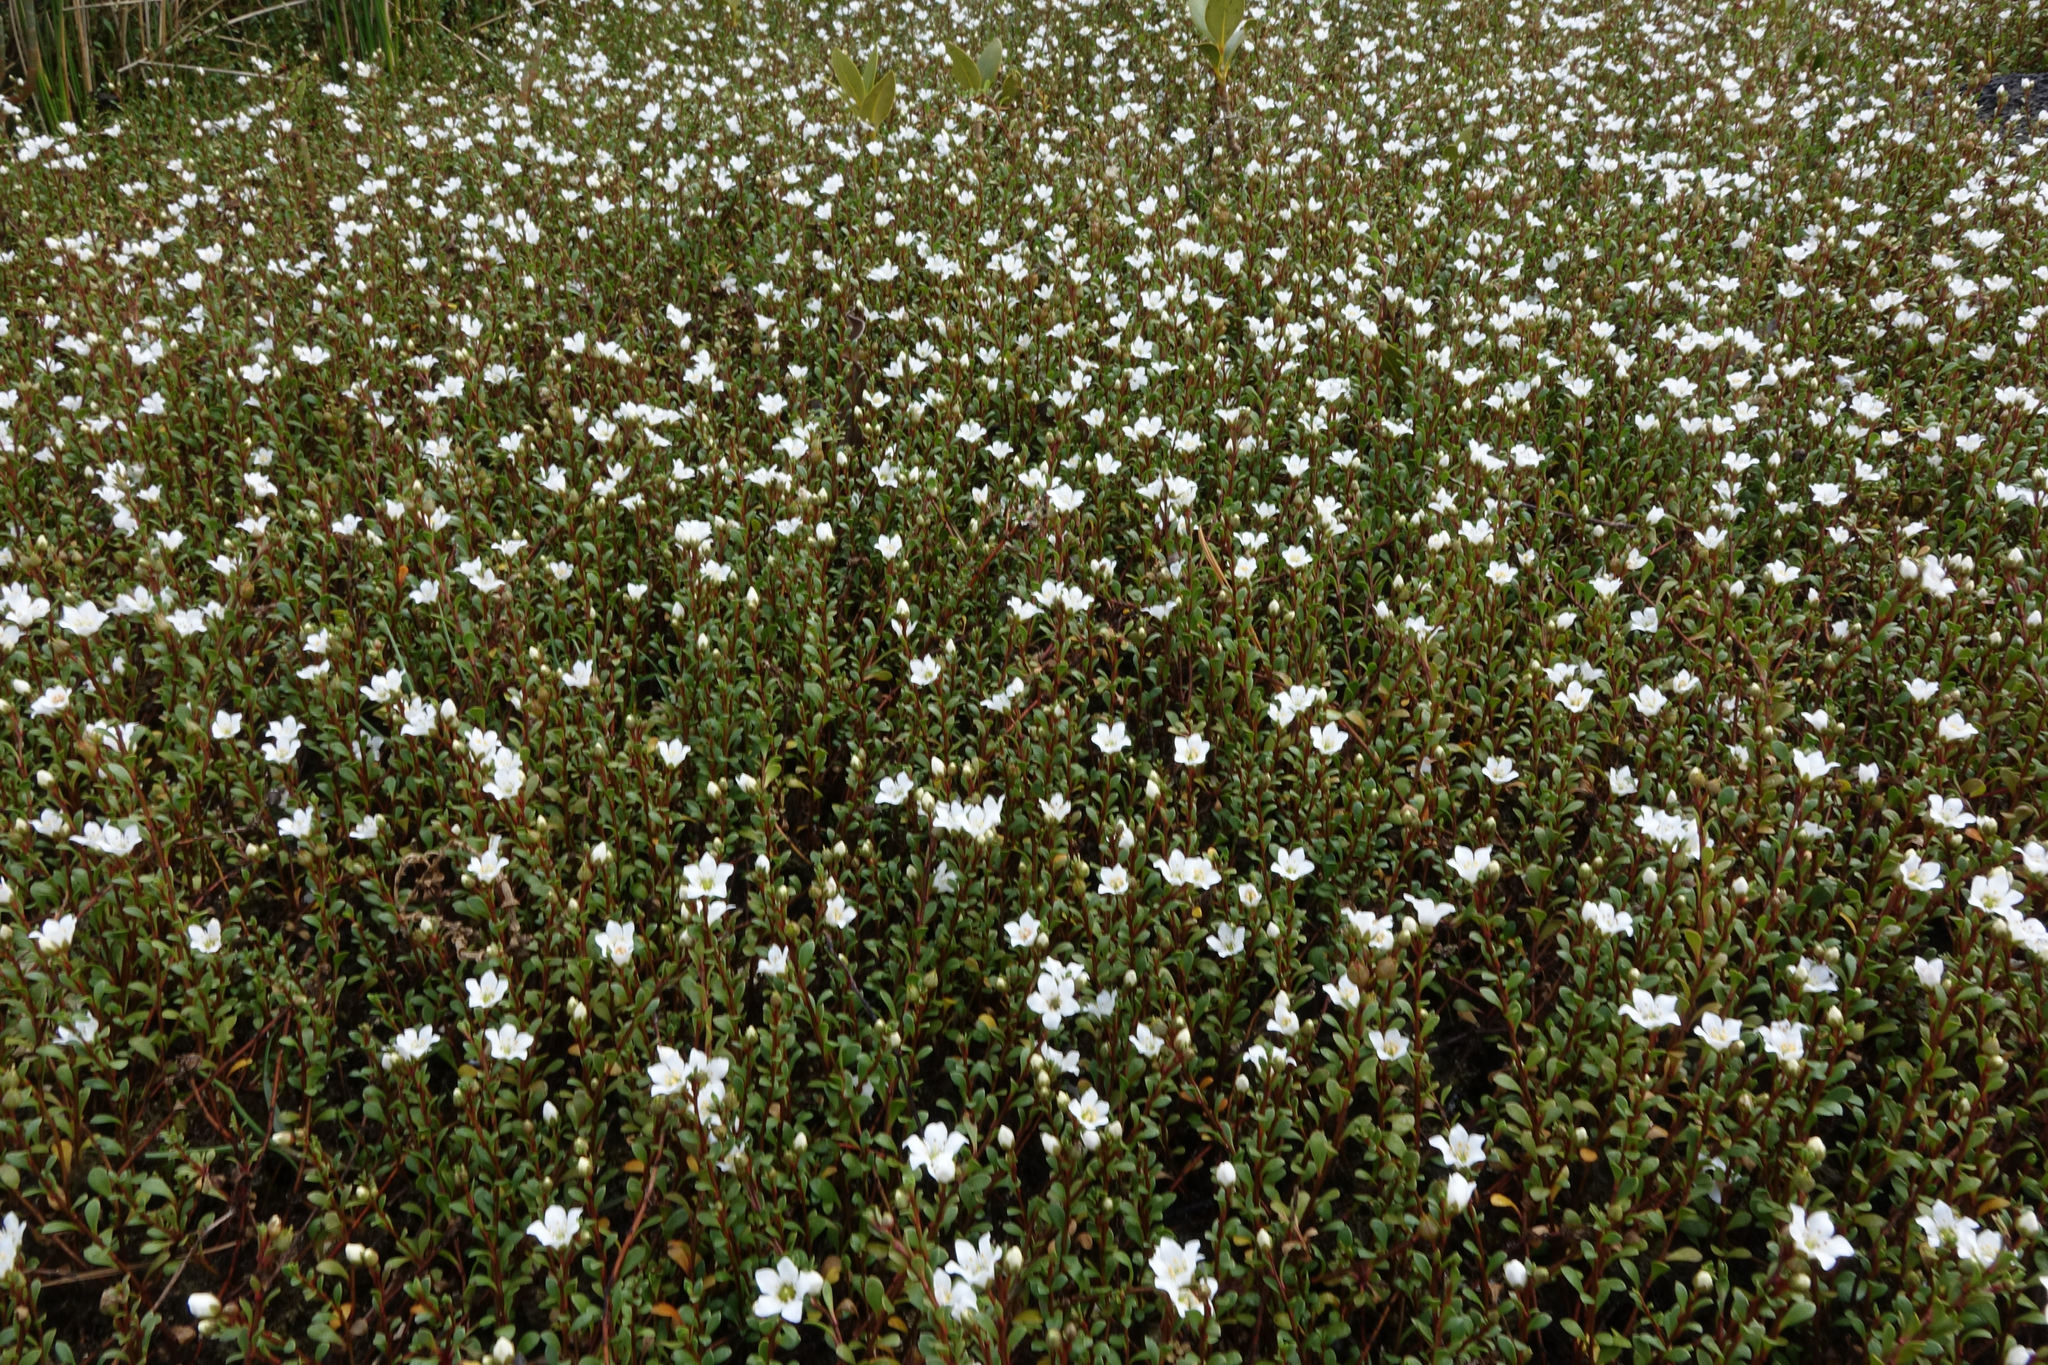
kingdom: Plantae
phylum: Tracheophyta
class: Magnoliopsida
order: Ericales
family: Primulaceae
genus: Samolus
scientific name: Samolus repens
